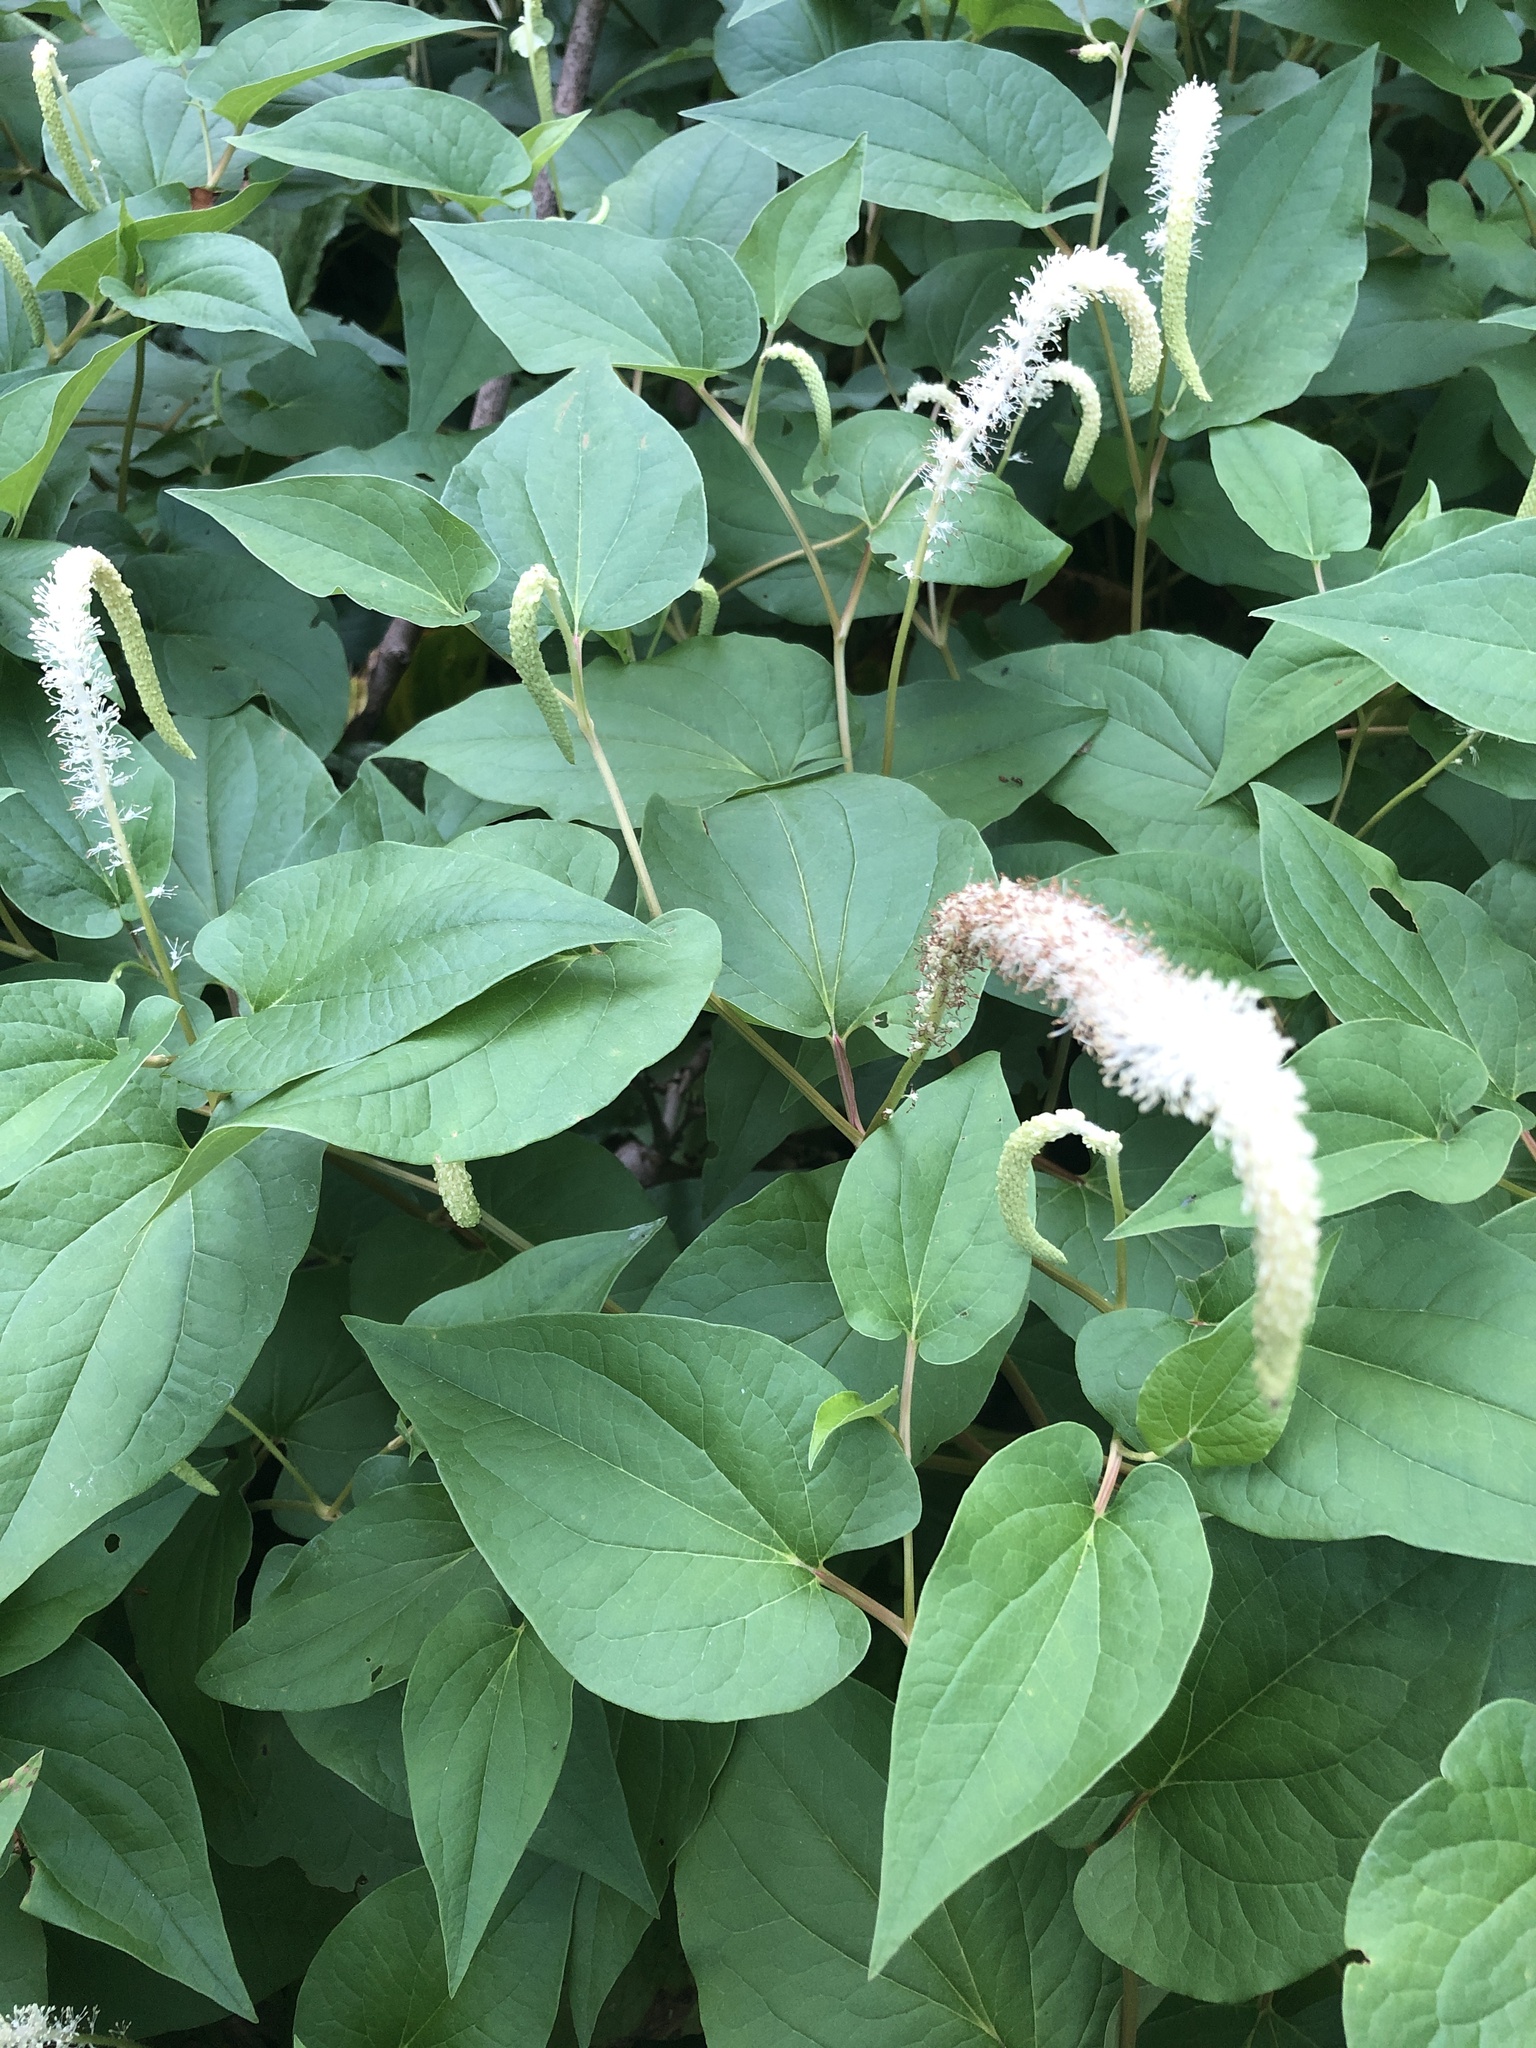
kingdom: Plantae
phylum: Tracheophyta
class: Magnoliopsida
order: Piperales
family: Saururaceae
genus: Saururus
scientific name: Saururus cernuus
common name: Lizard's-tail
